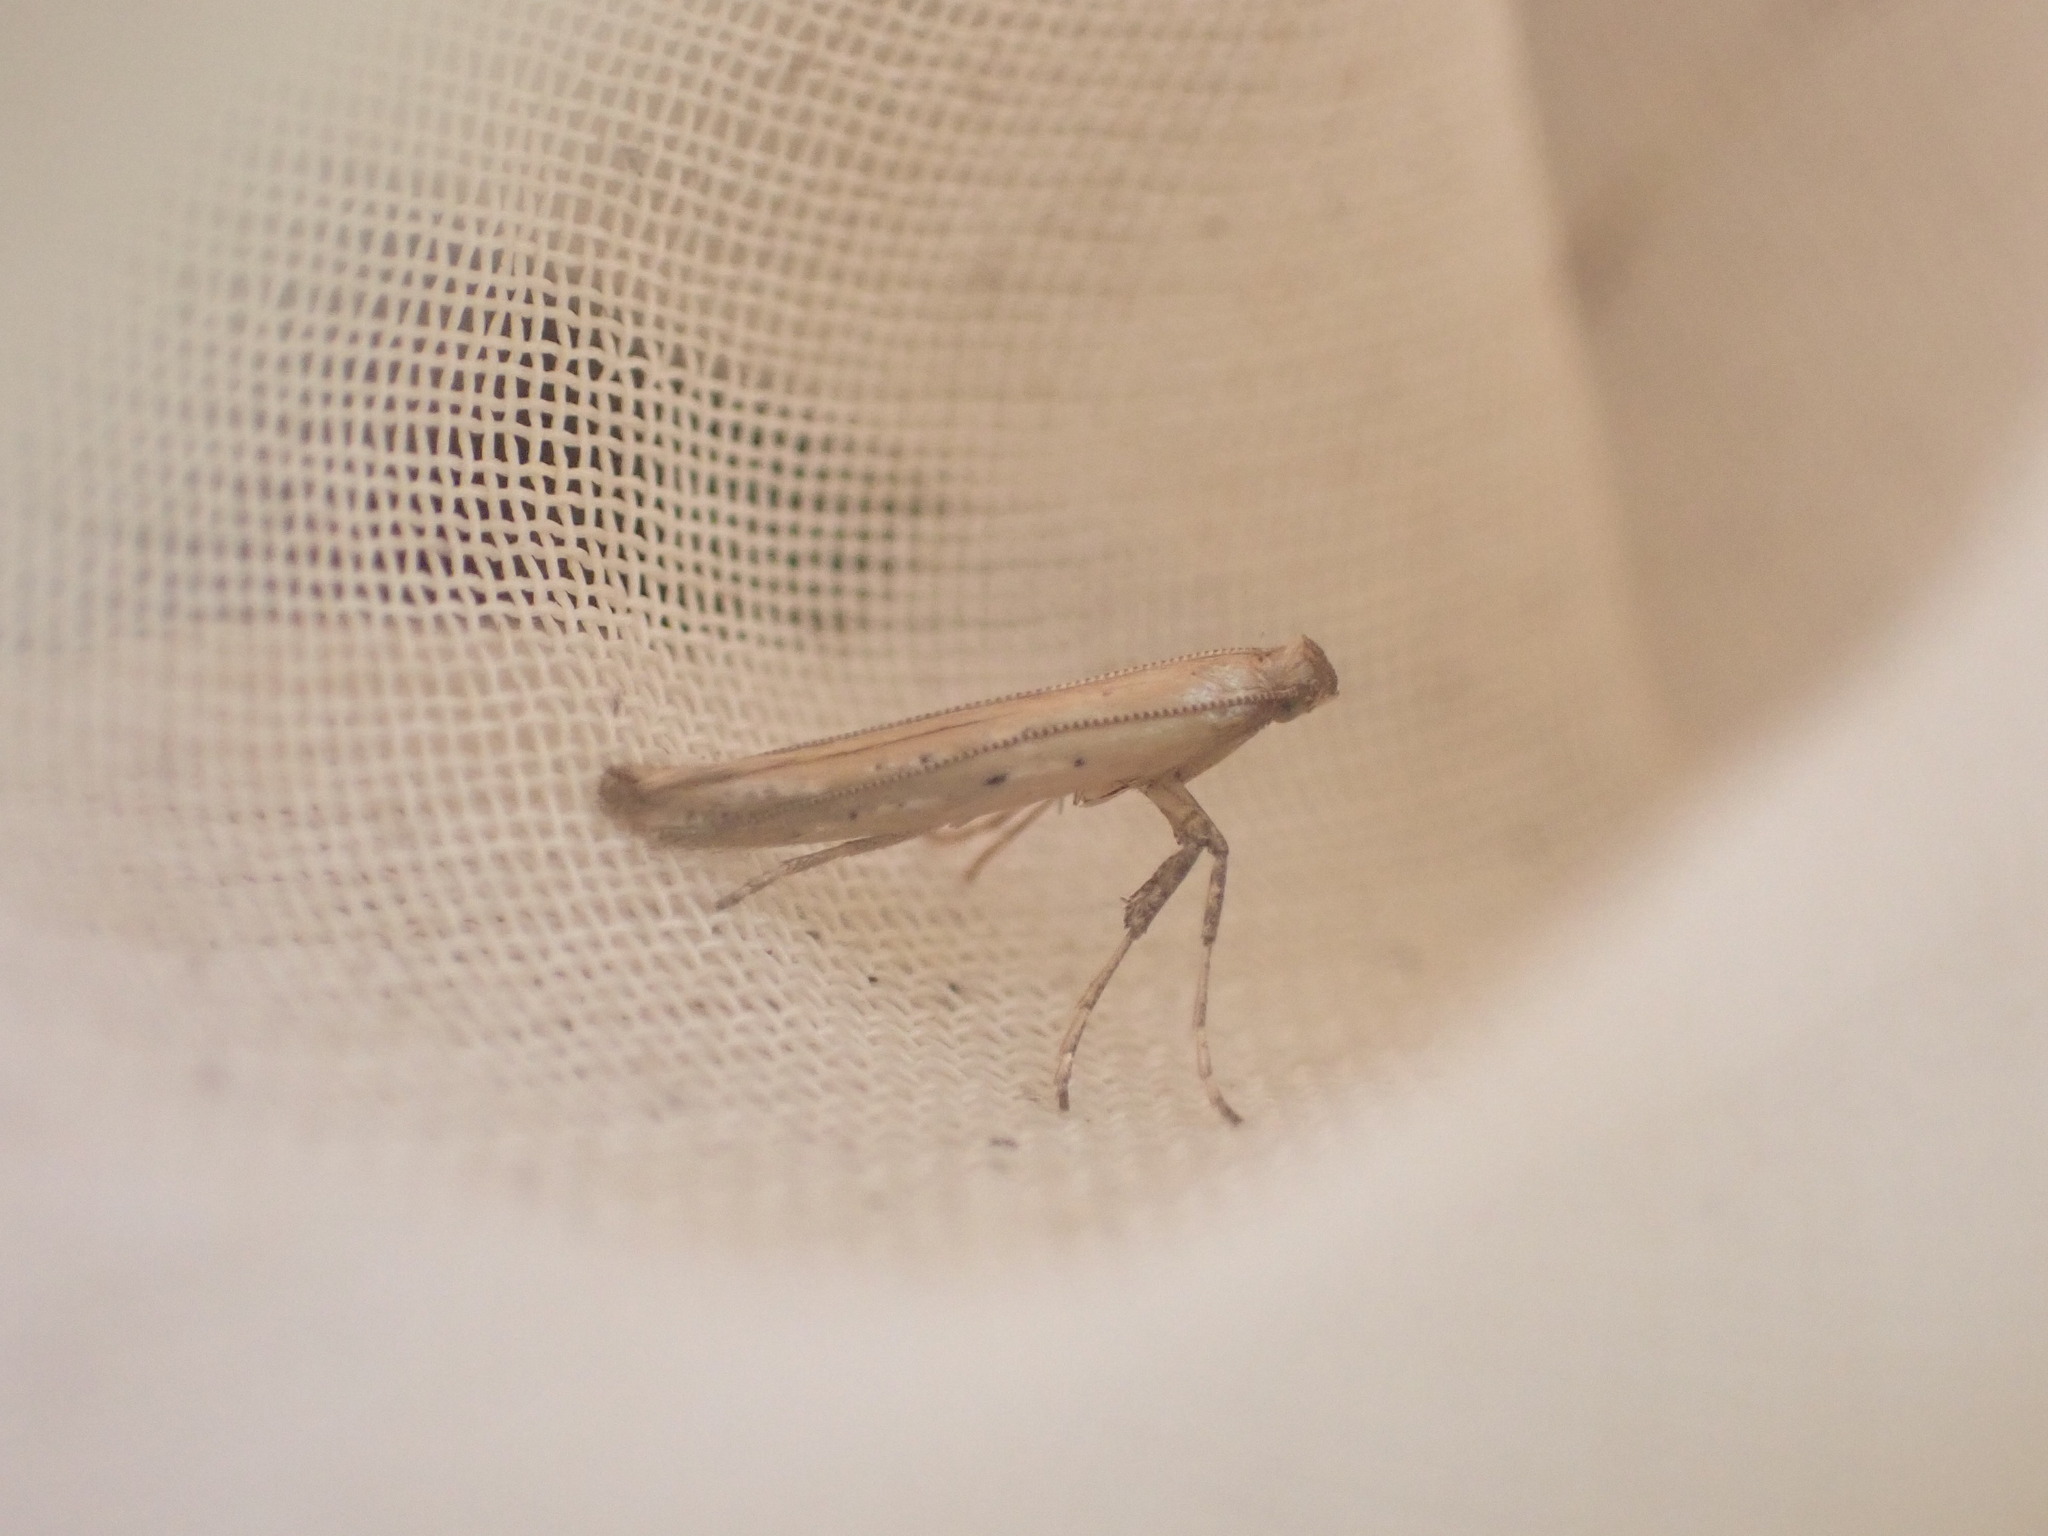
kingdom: Animalia
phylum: Arthropoda
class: Insecta
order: Lepidoptera
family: Gracillariidae
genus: Caloptilia
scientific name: Caloptilia elaeas
